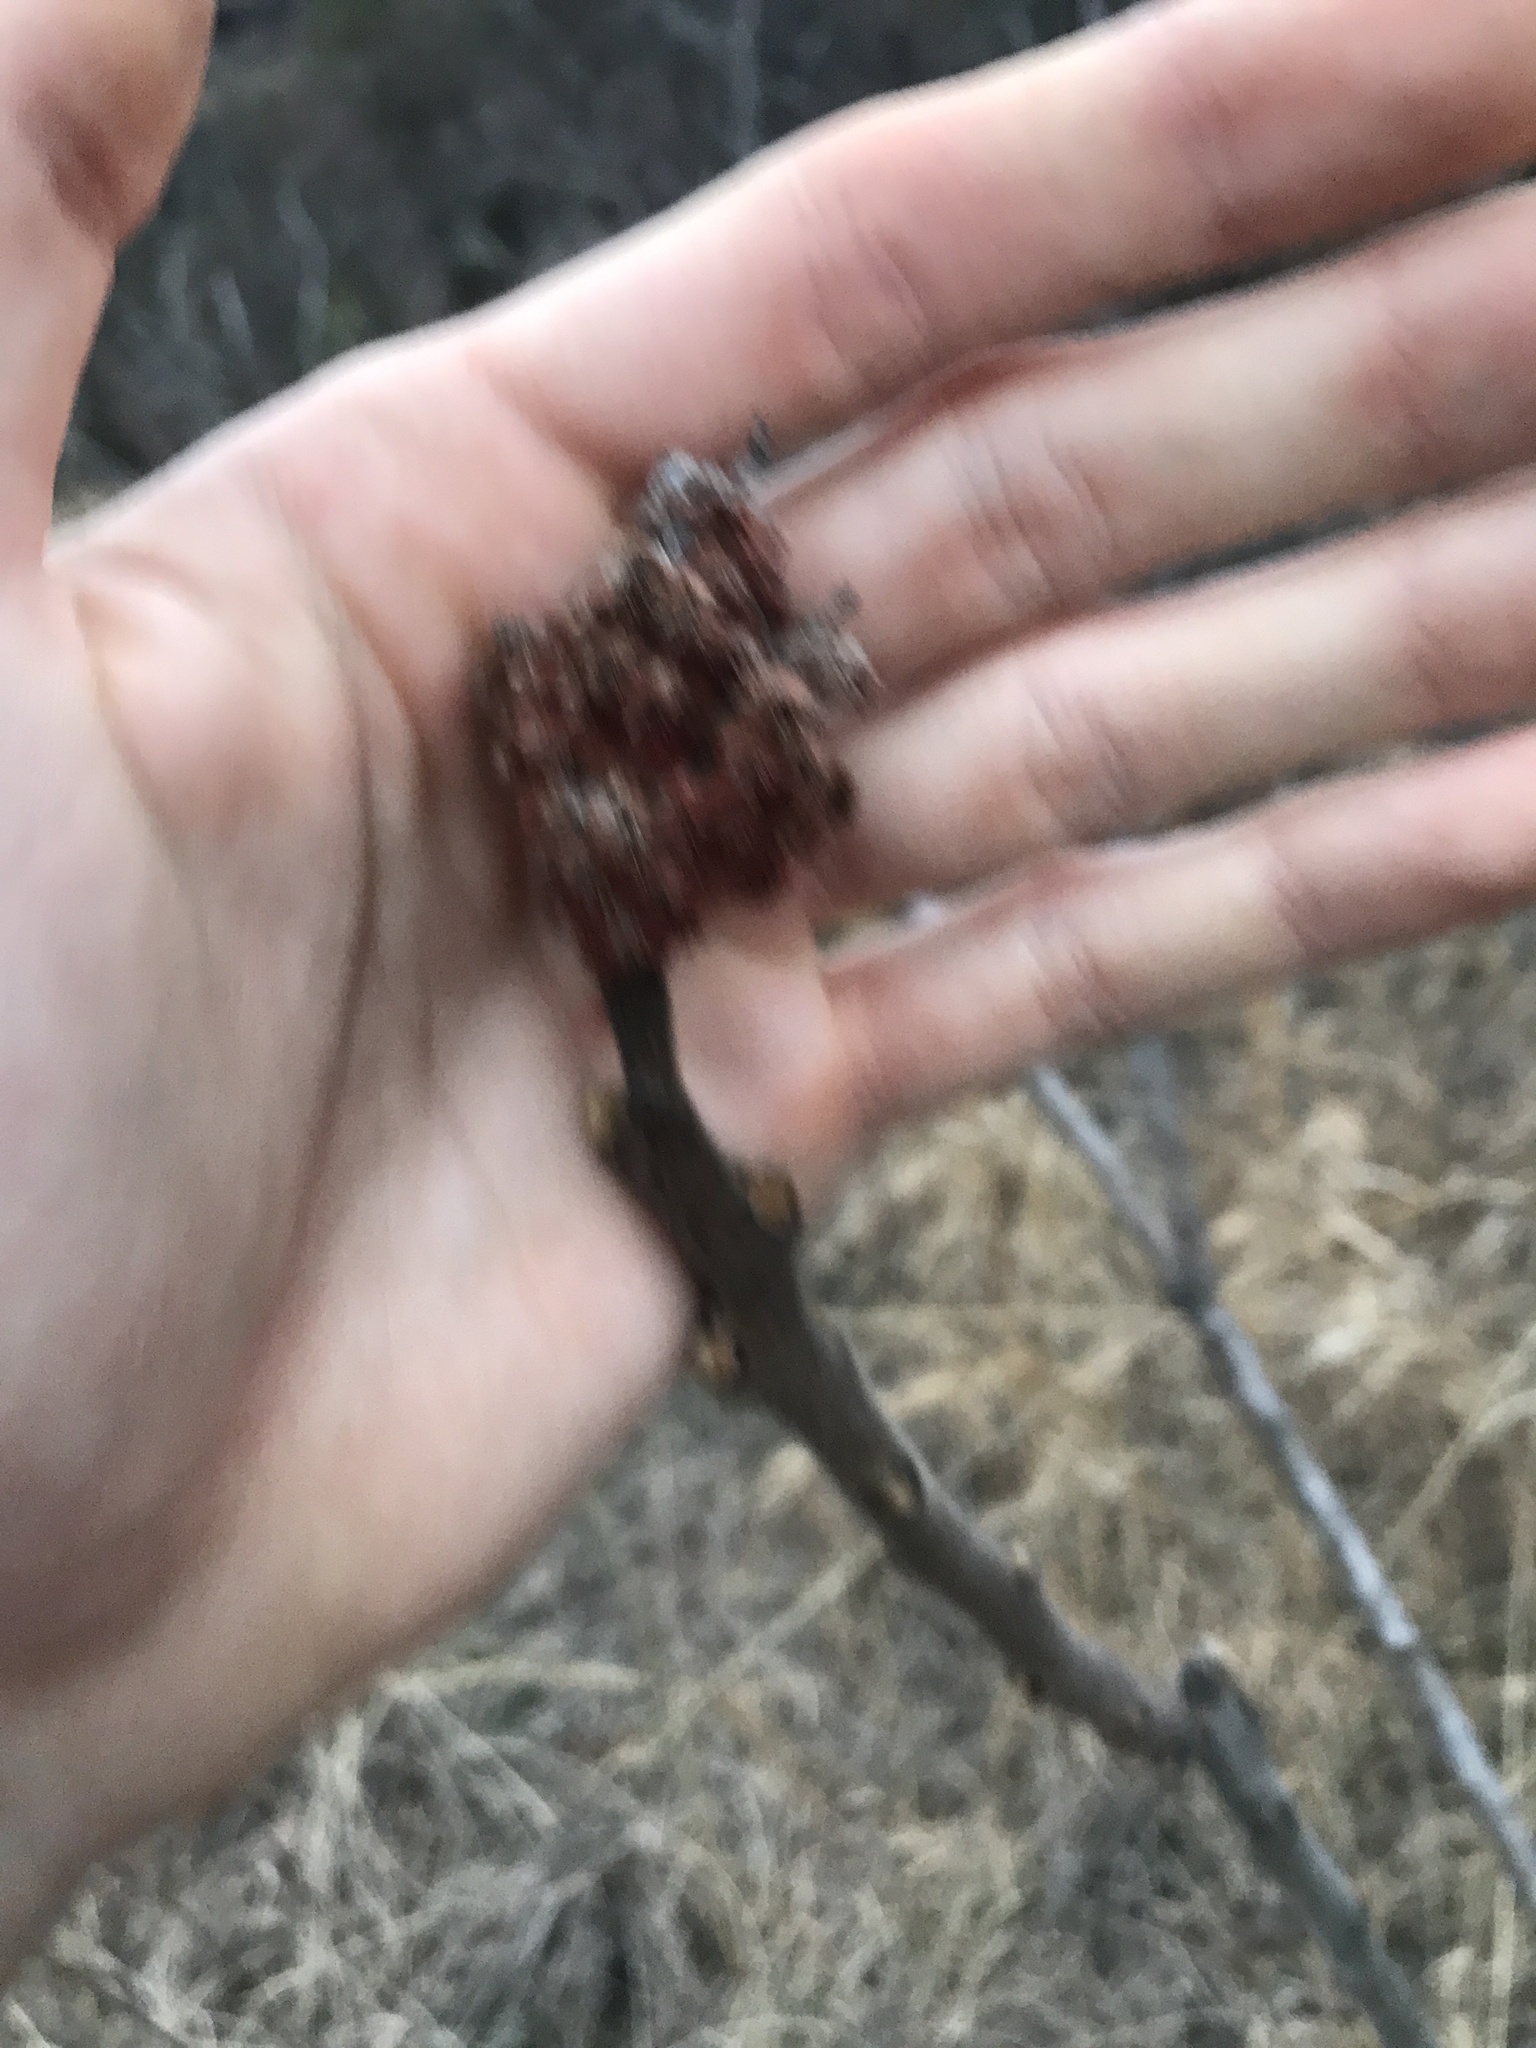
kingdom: Plantae
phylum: Tracheophyta
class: Magnoliopsida
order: Sapindales
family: Anacardiaceae
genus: Rhus
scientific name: Rhus typhina
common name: Staghorn sumac
